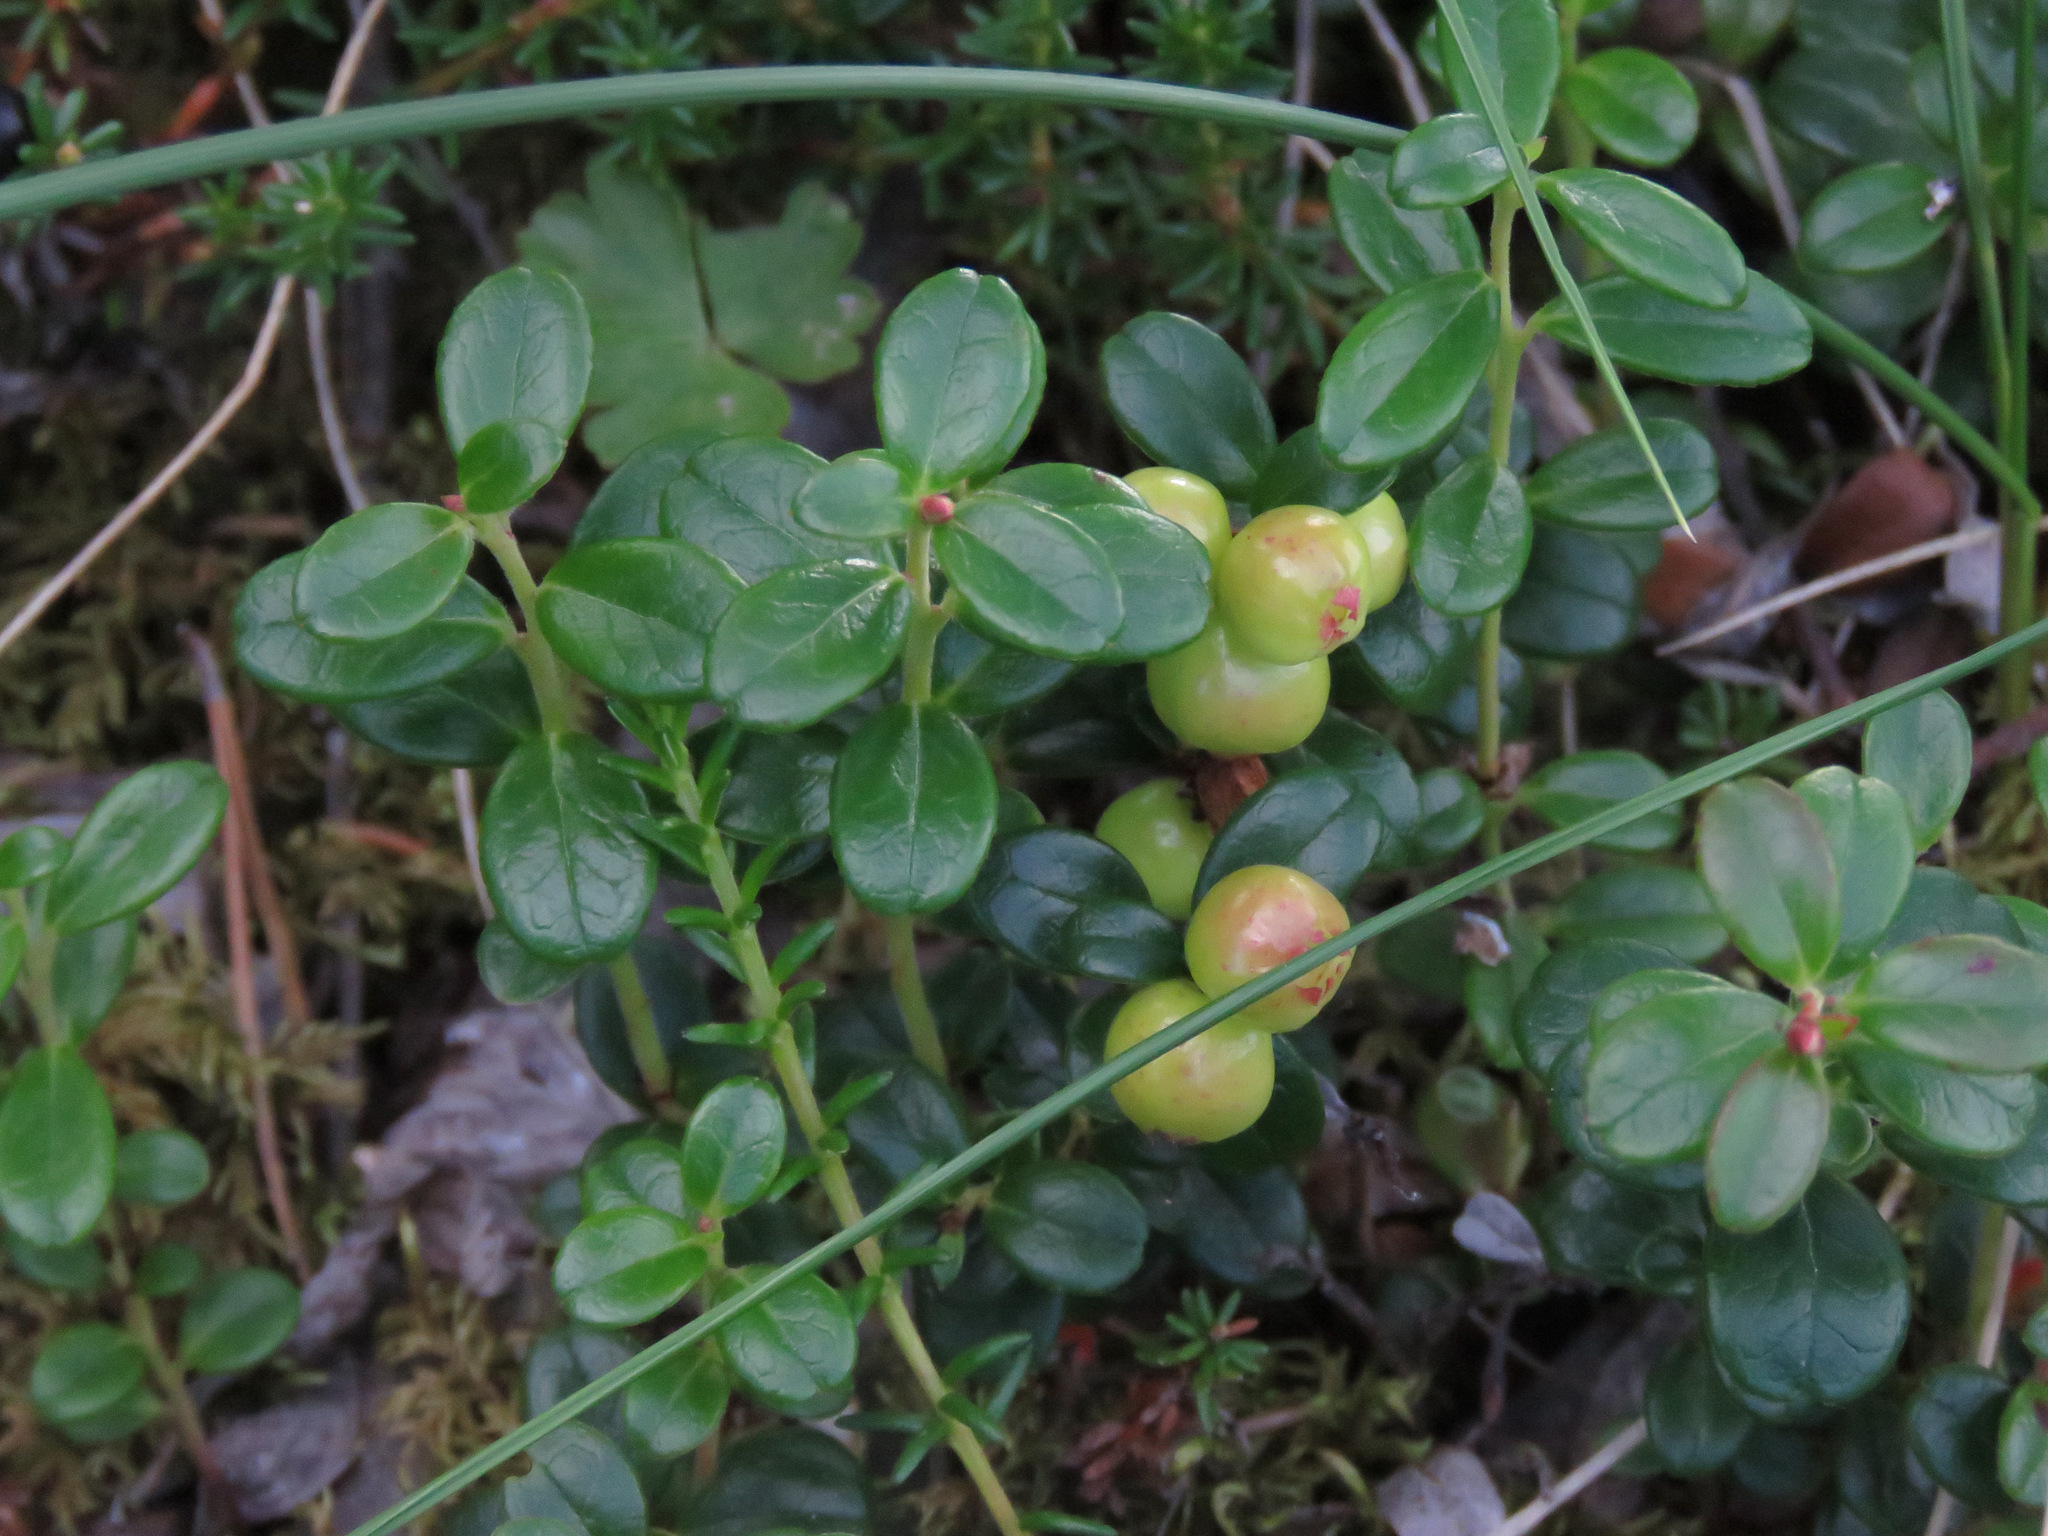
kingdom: Plantae
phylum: Tracheophyta
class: Magnoliopsida
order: Ericales
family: Ericaceae
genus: Vaccinium
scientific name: Vaccinium vitis-idaea
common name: Cowberry
